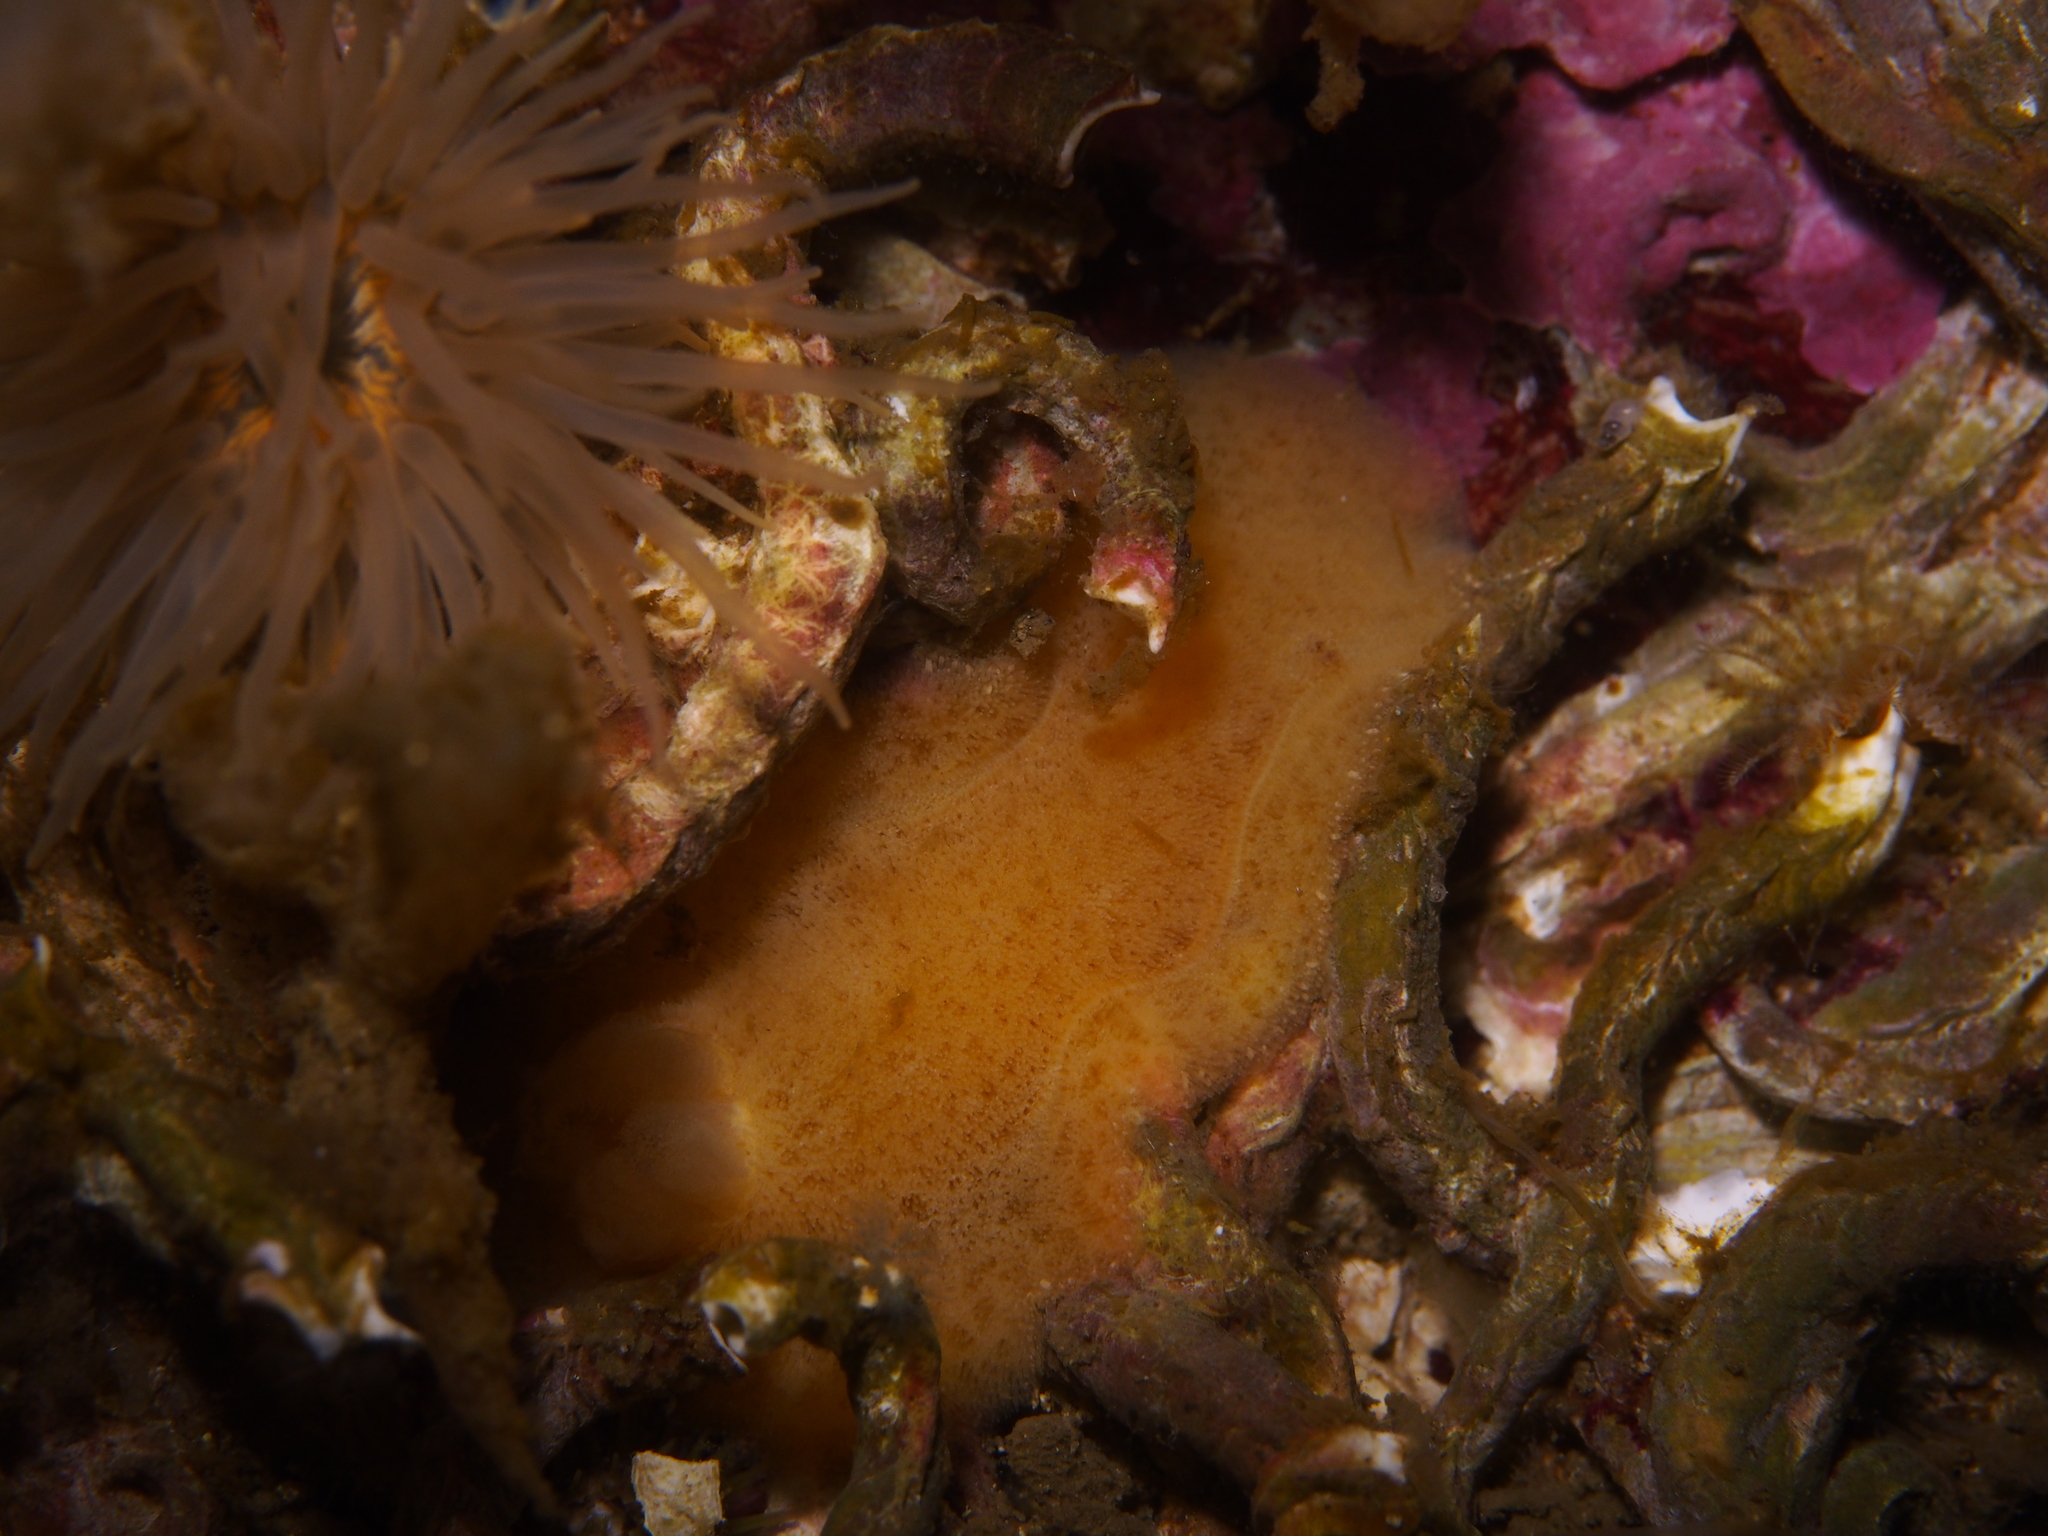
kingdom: Animalia
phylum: Mollusca
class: Gastropoda
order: Nudibranchia
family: Discodorididae
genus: Jorunna
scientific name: Jorunna tomentosa
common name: Grey sea slug
